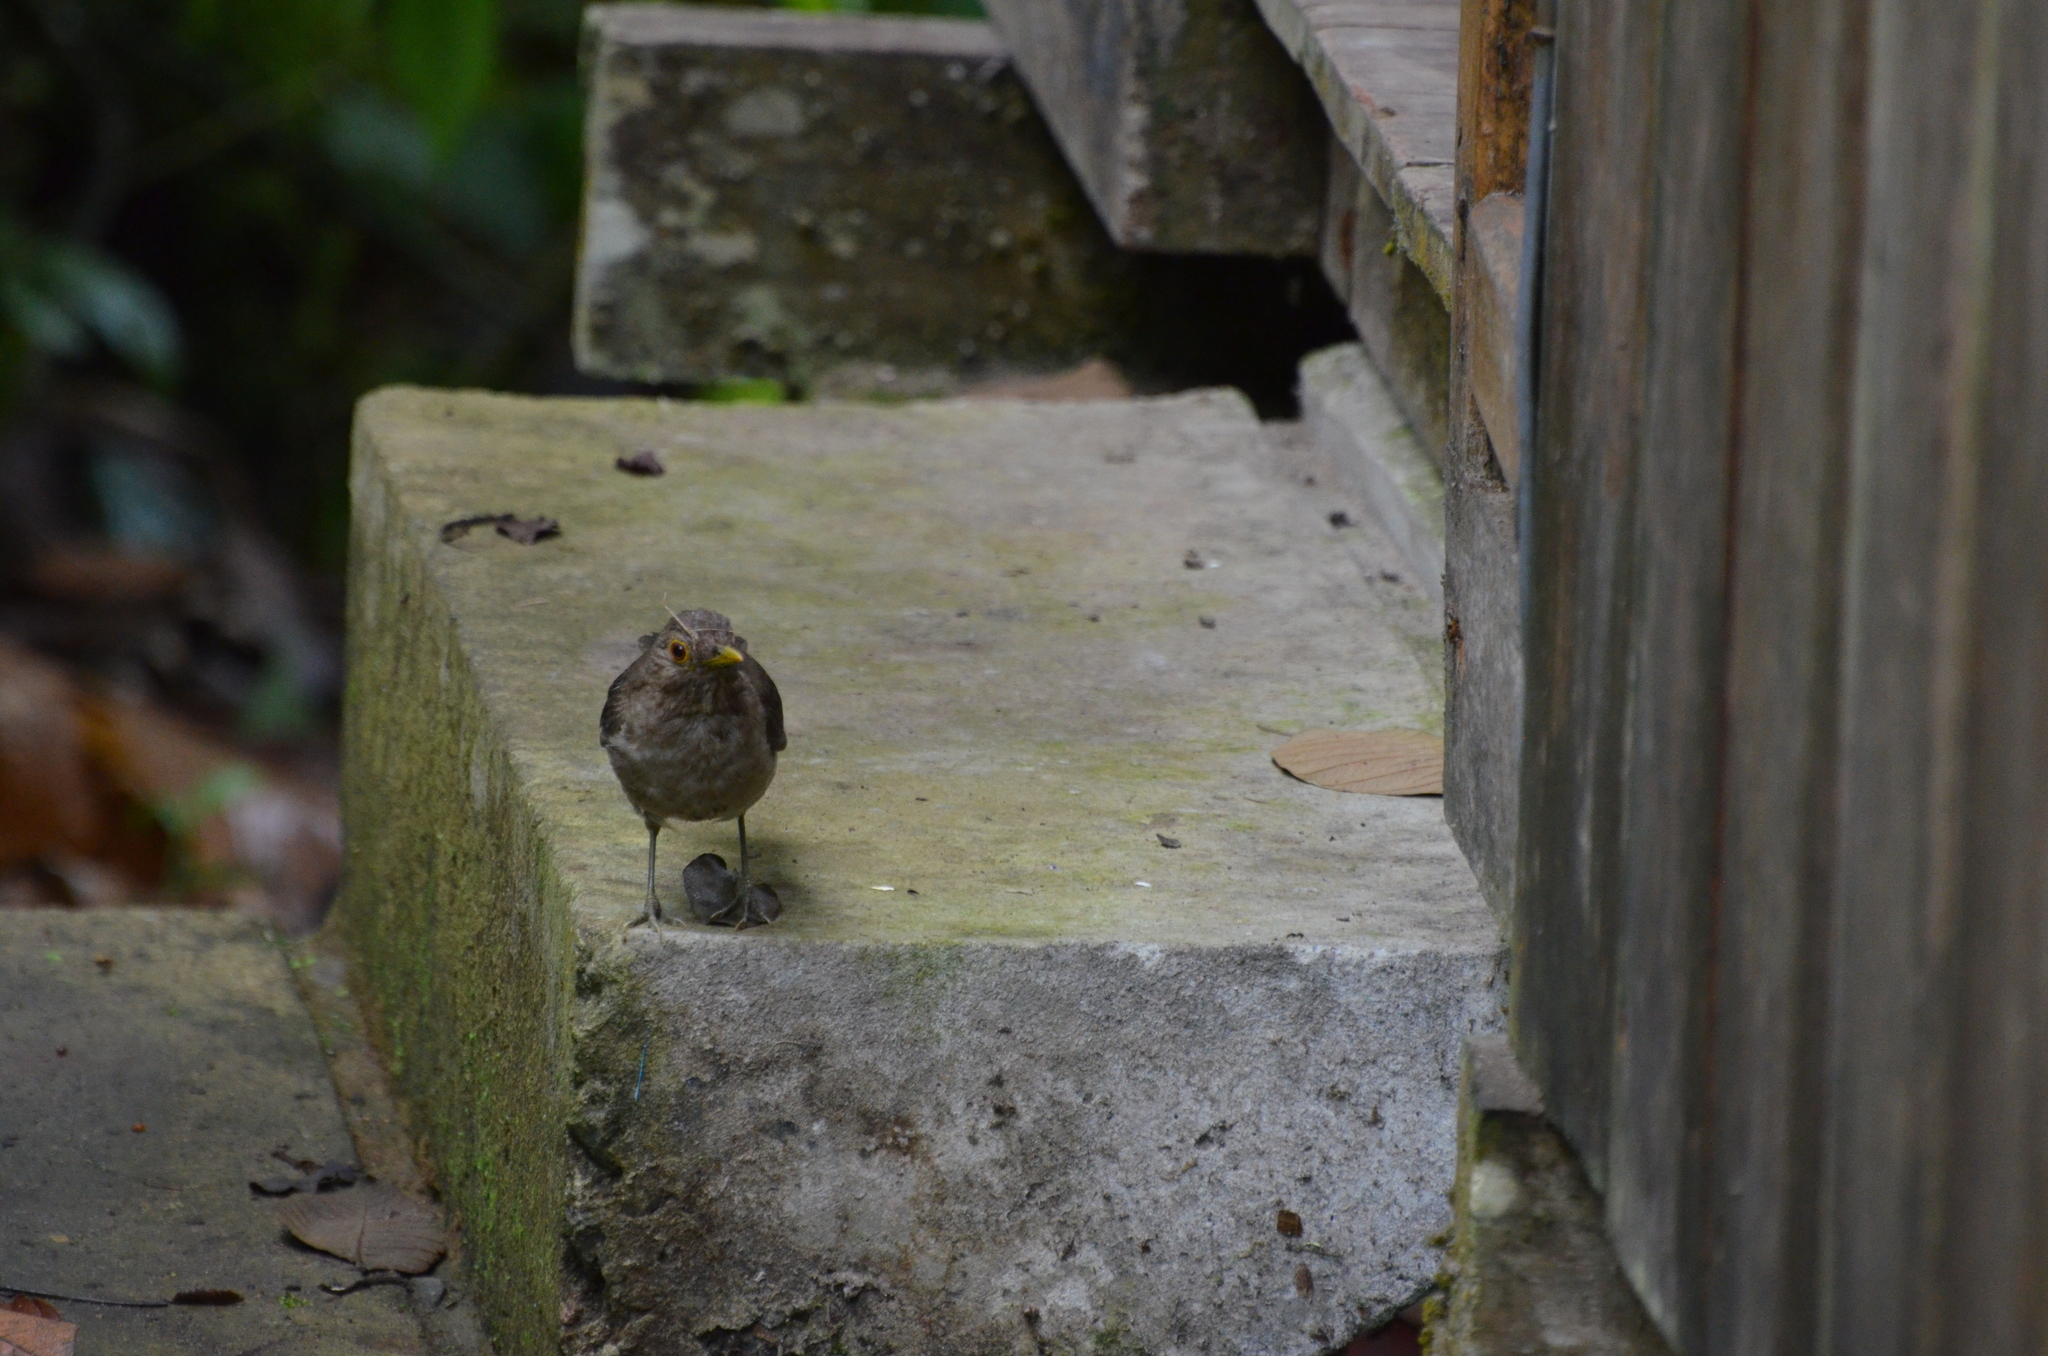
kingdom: Animalia
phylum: Chordata
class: Aves
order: Passeriformes
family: Turdidae
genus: Turdus
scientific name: Turdus maculirostris
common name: Ecuadorian thrush
